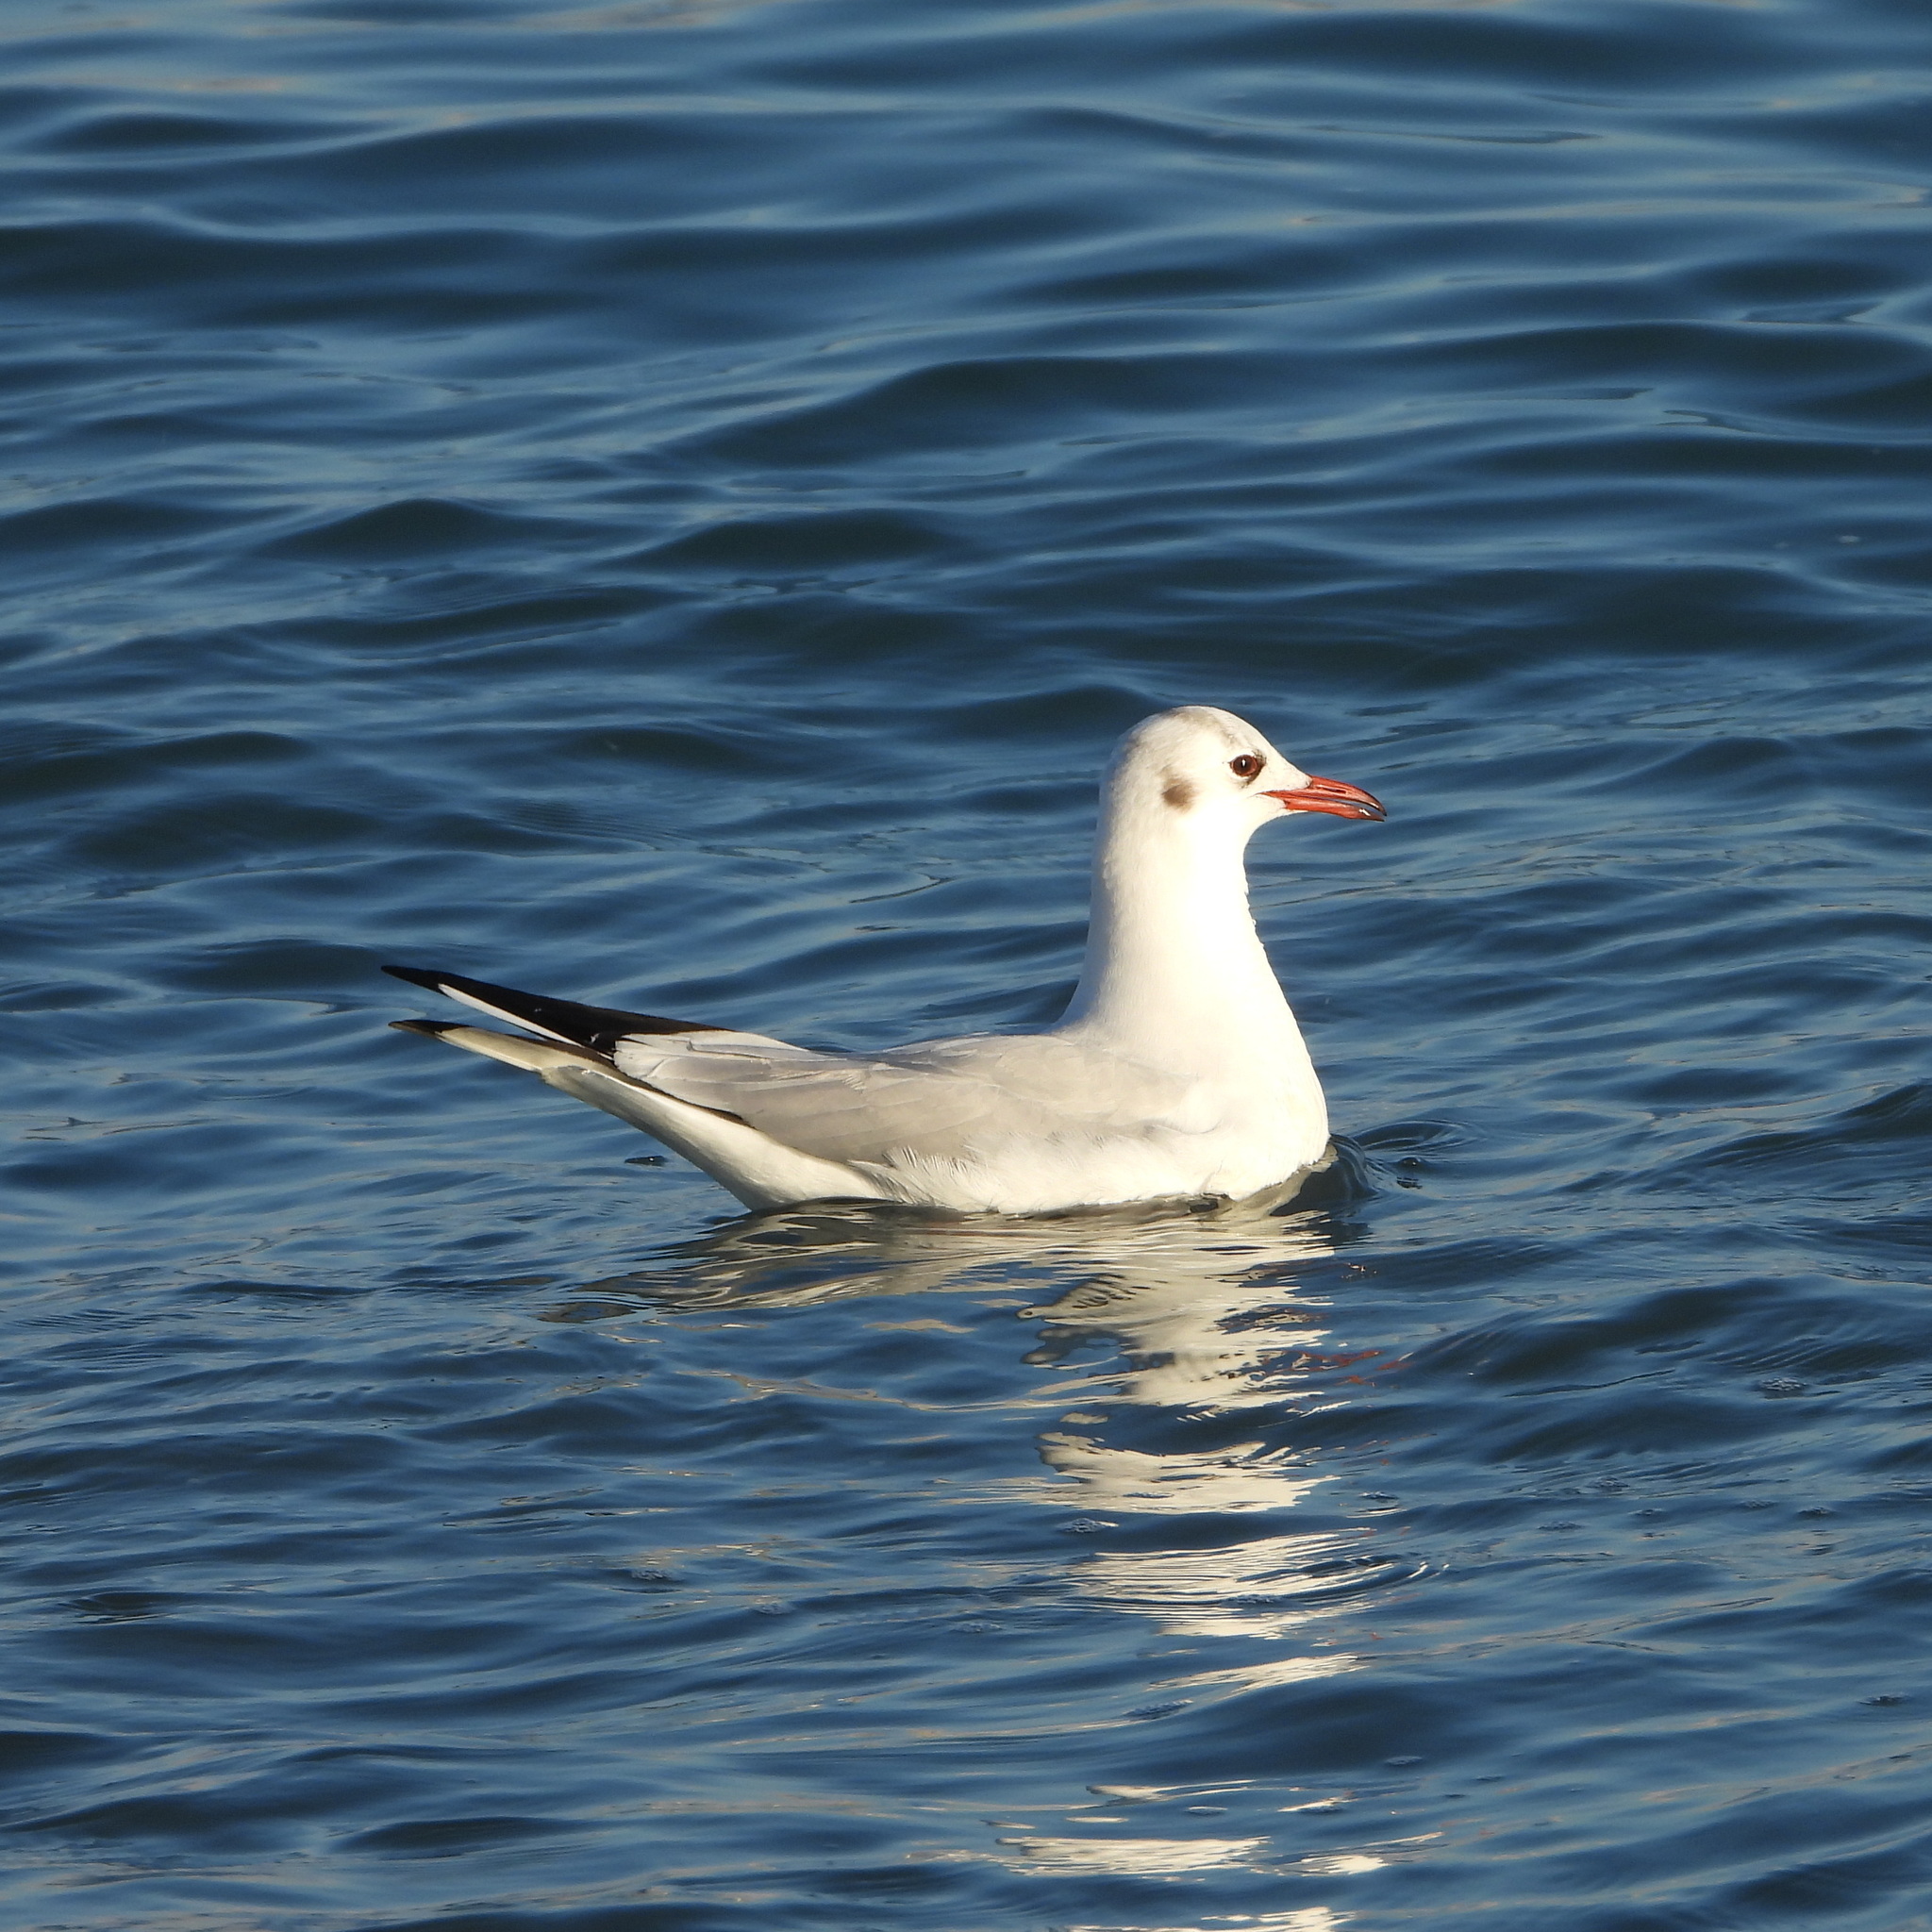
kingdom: Animalia
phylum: Chordata
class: Aves
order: Charadriiformes
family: Laridae
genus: Chroicocephalus
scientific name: Chroicocephalus ridibundus
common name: Black-headed gull
